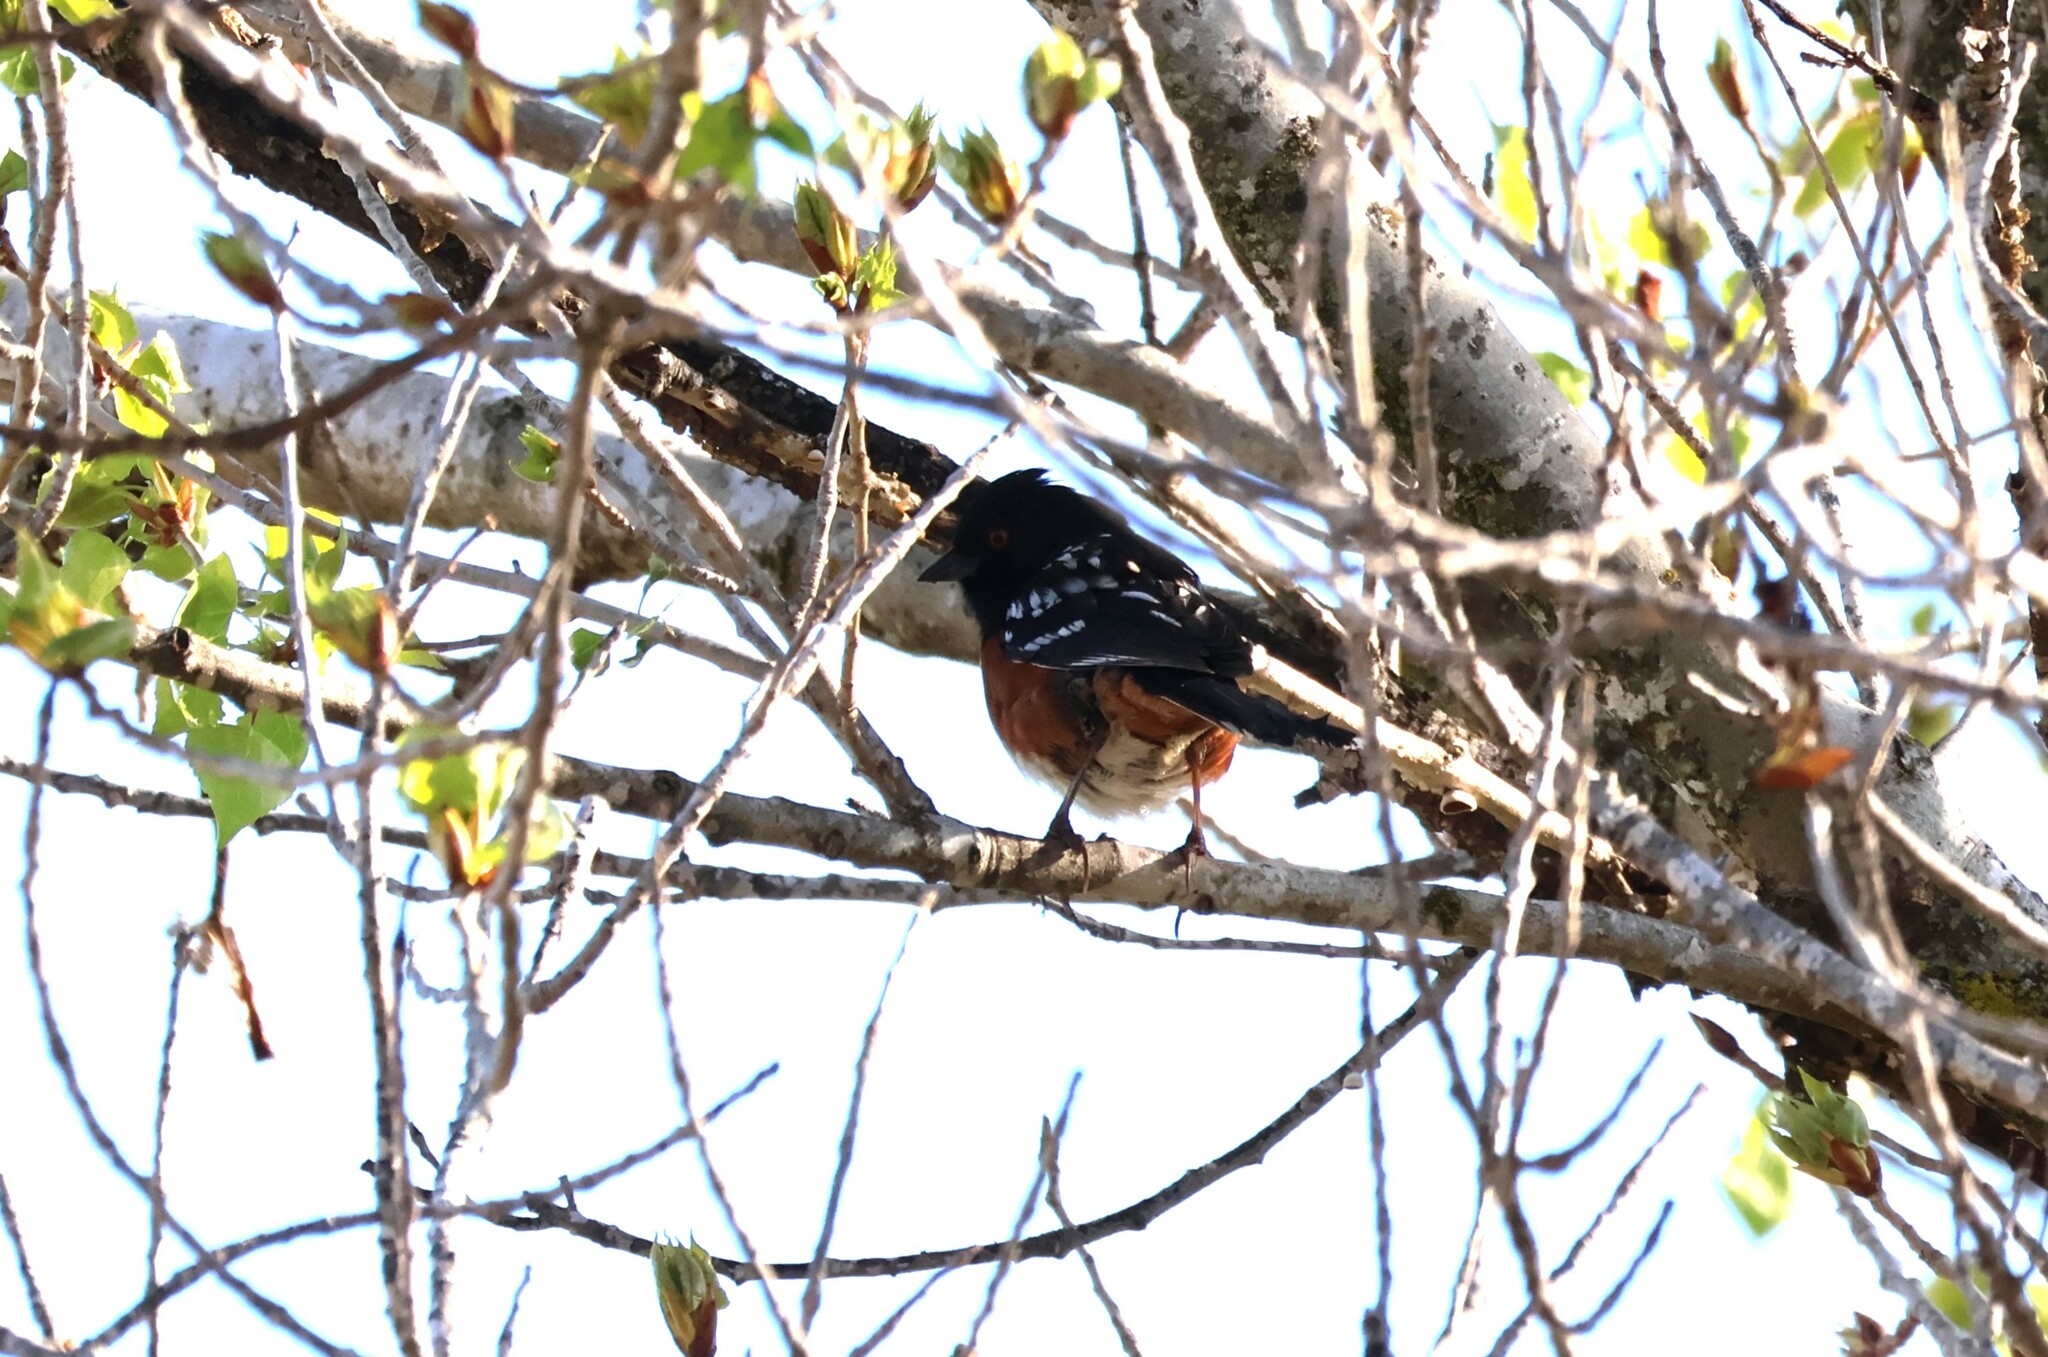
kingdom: Animalia
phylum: Chordata
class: Aves
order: Passeriformes
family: Passerellidae
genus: Pipilo
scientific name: Pipilo maculatus
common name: Spotted towhee
